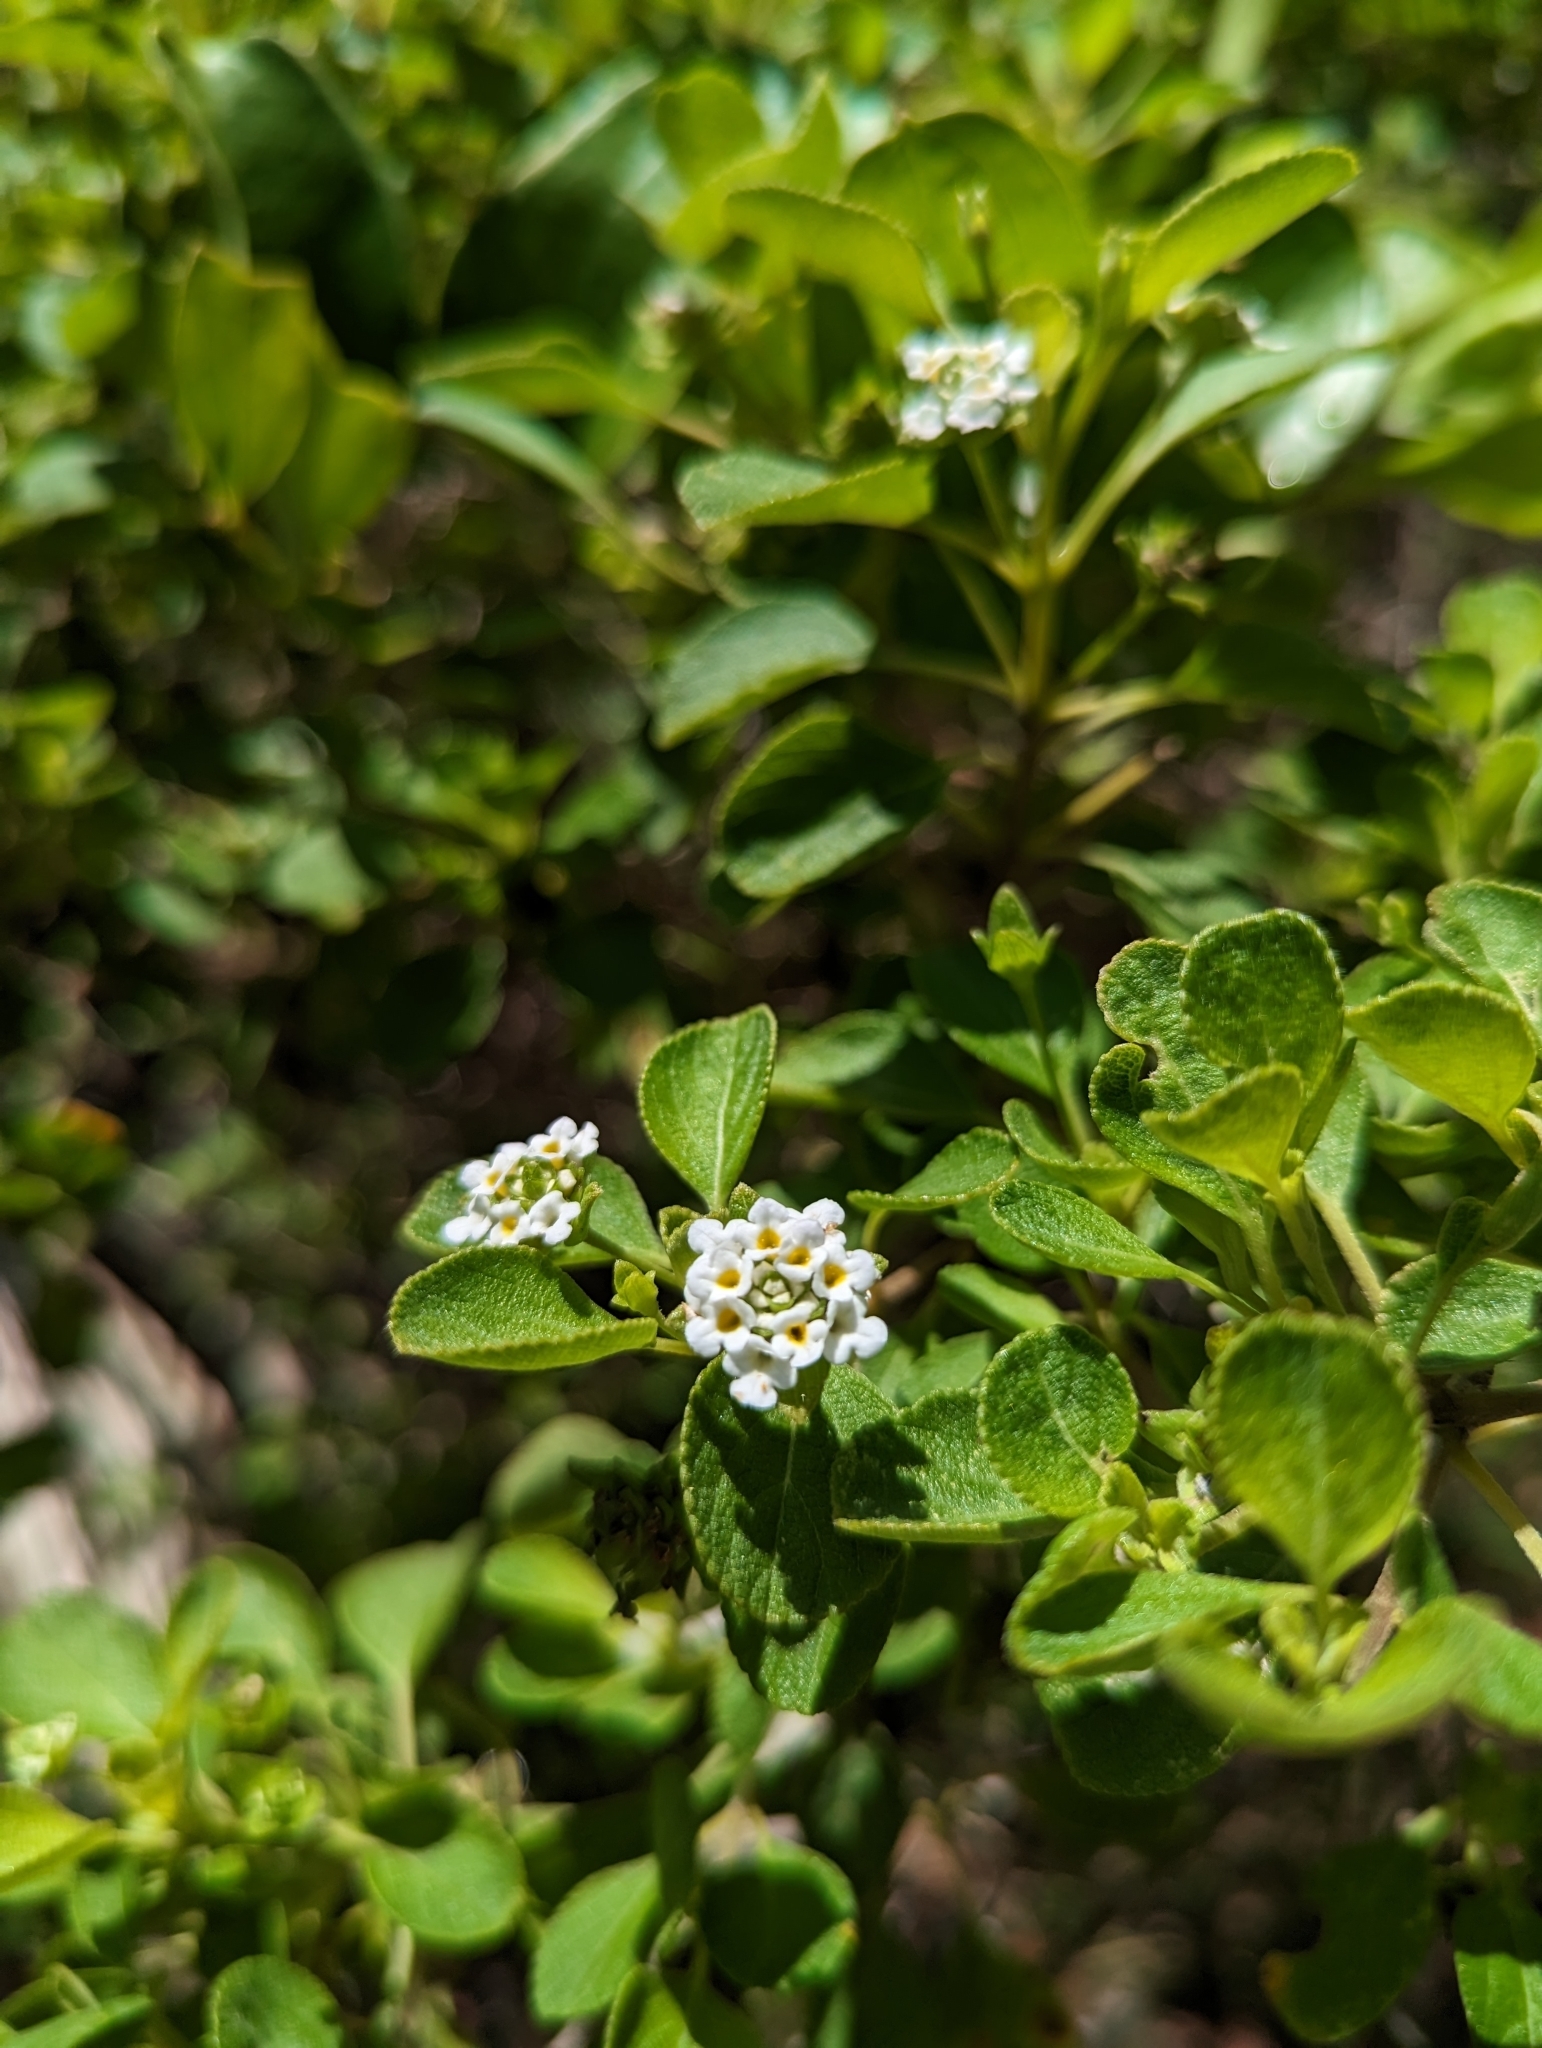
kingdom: Plantae
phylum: Tracheophyta
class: Magnoliopsida
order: Lamiales
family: Verbenaceae
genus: Lantana
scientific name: Lantana involucrata
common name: Black sage
